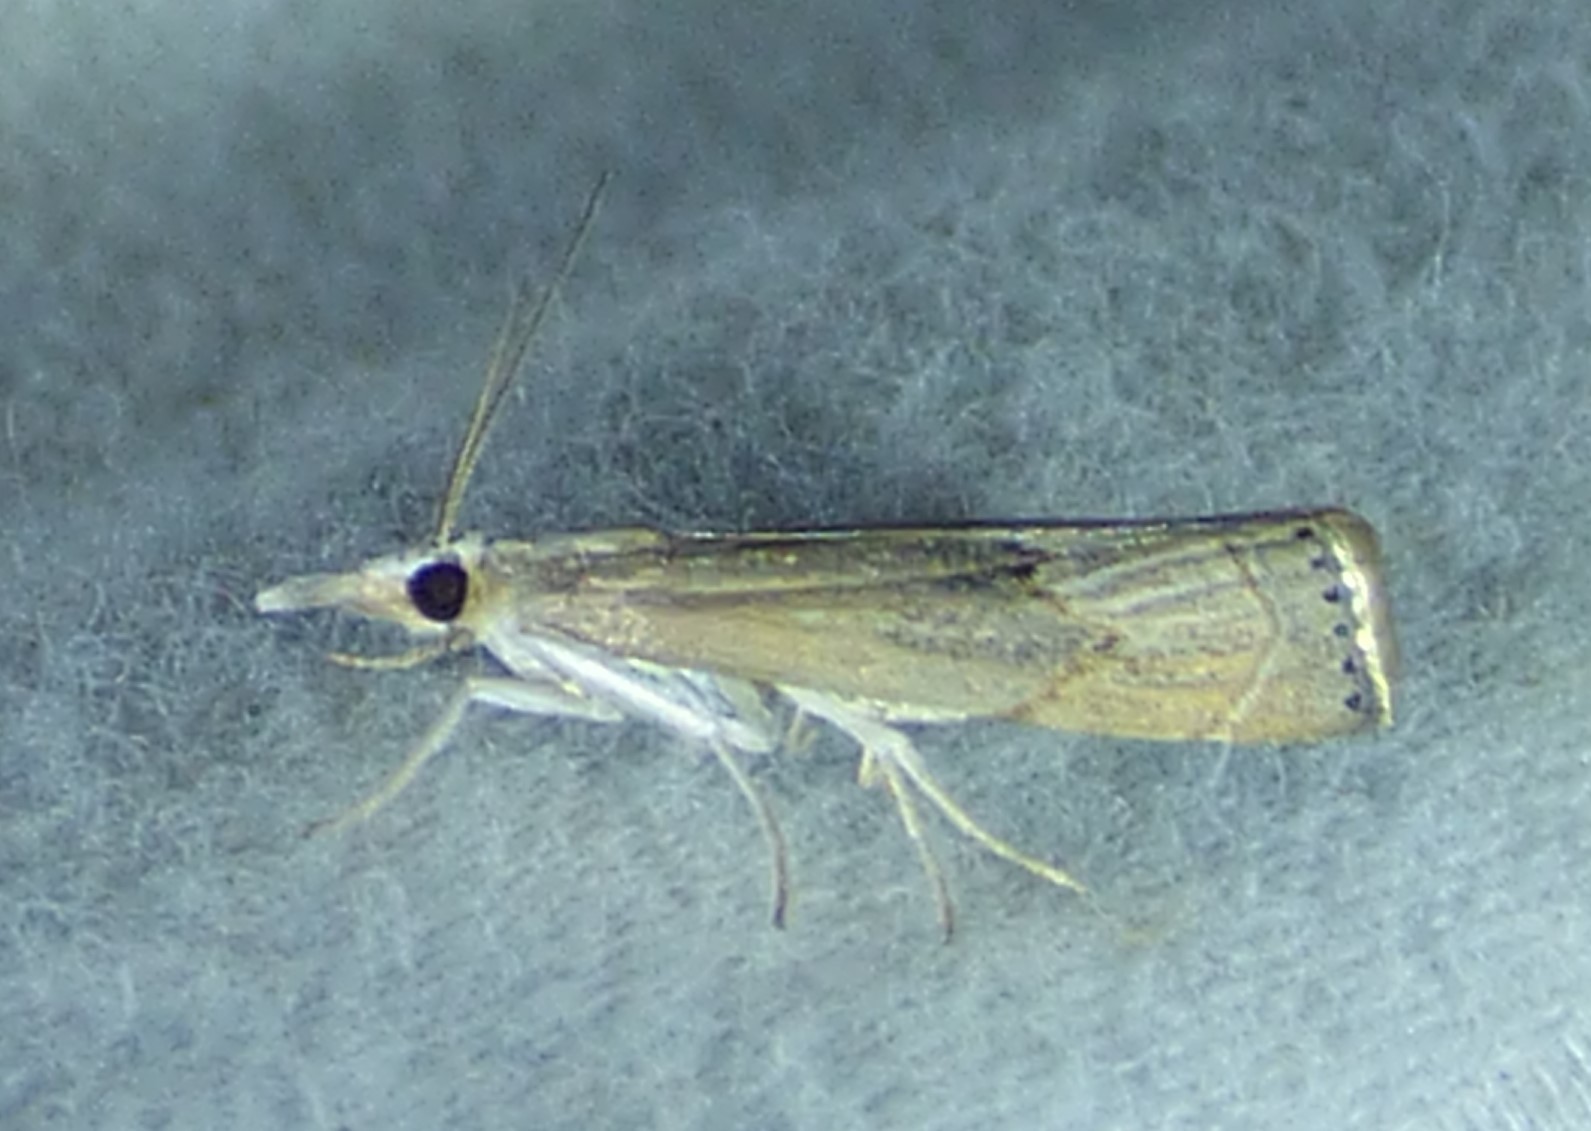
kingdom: Animalia
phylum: Arthropoda
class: Insecta
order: Lepidoptera
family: Crambidae
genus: Parapediasia
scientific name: Parapediasia teterellus
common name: Bluegrass webworm moth
